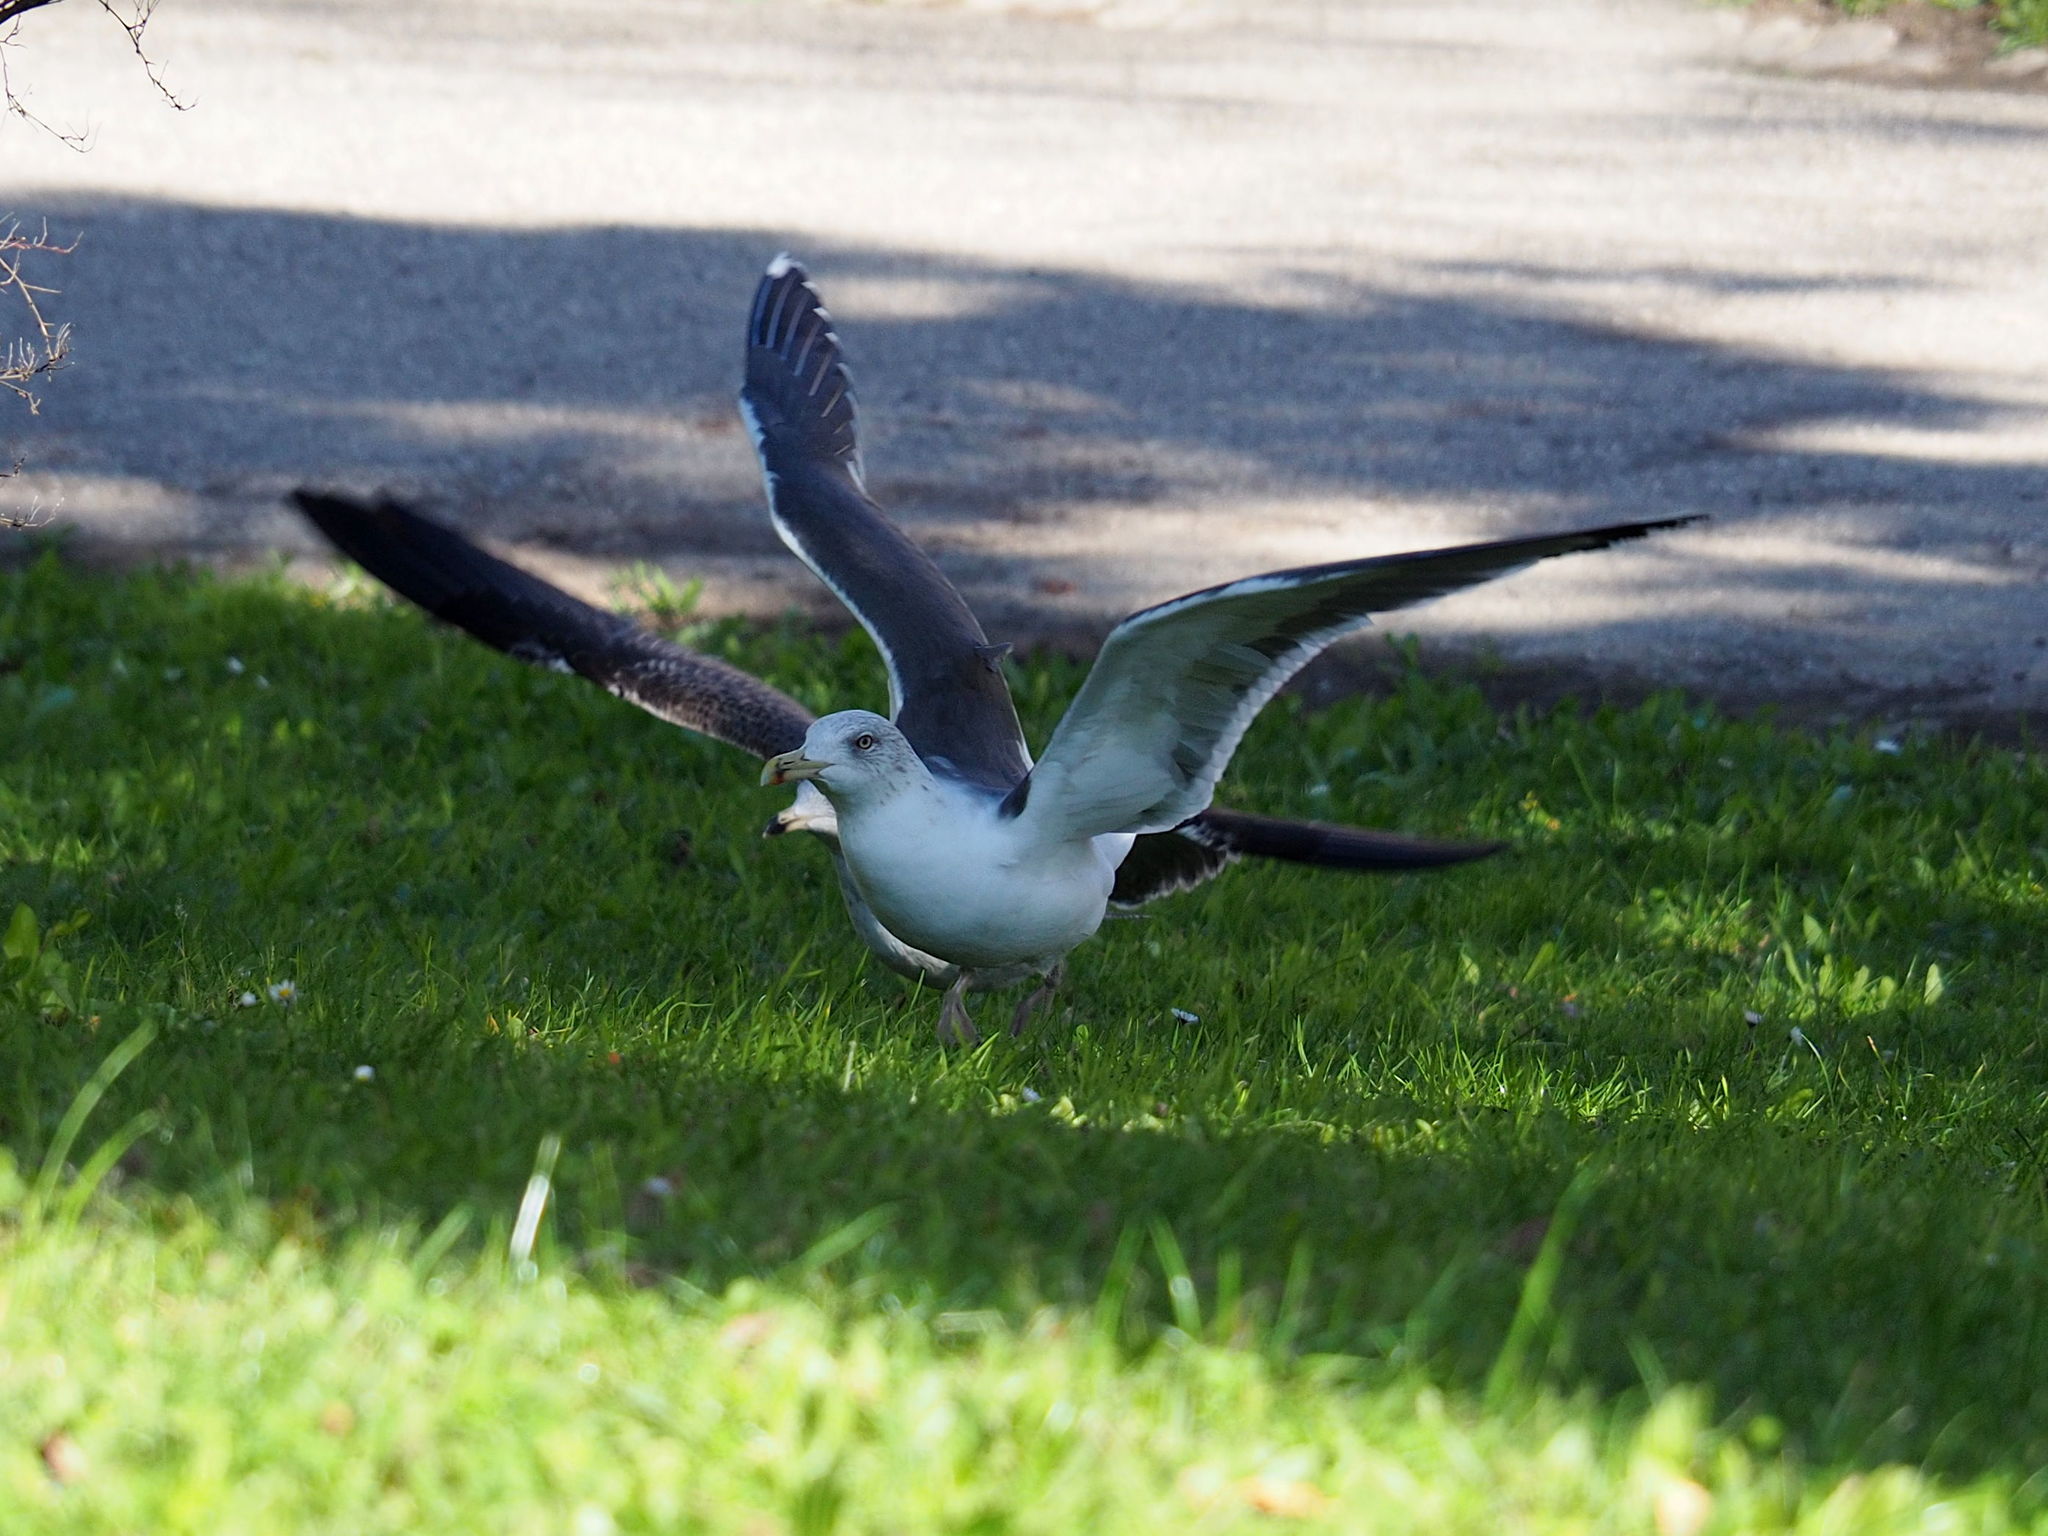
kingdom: Animalia
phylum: Chordata
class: Aves
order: Charadriiformes
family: Laridae
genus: Larus
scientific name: Larus fuscus
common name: Lesser black-backed gull
